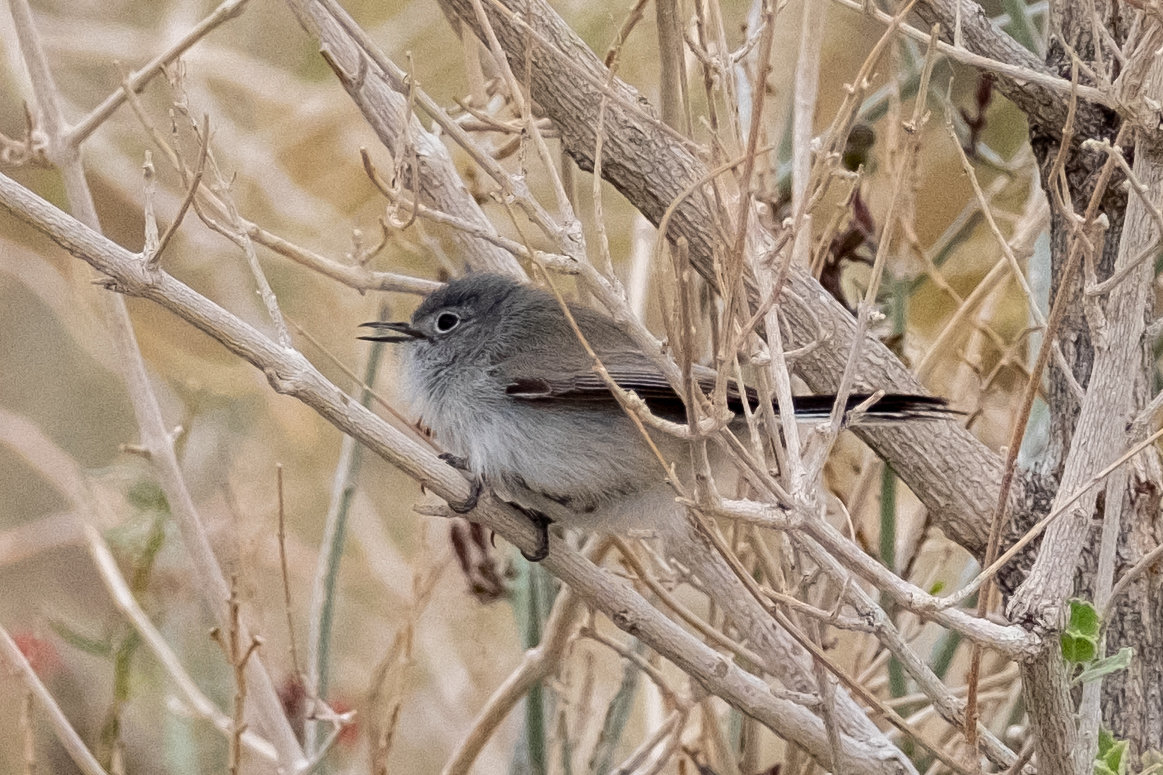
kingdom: Animalia
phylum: Chordata
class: Aves
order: Passeriformes
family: Polioptilidae
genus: Polioptila
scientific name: Polioptila melanura
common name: Black-tailed gnatcatcher
